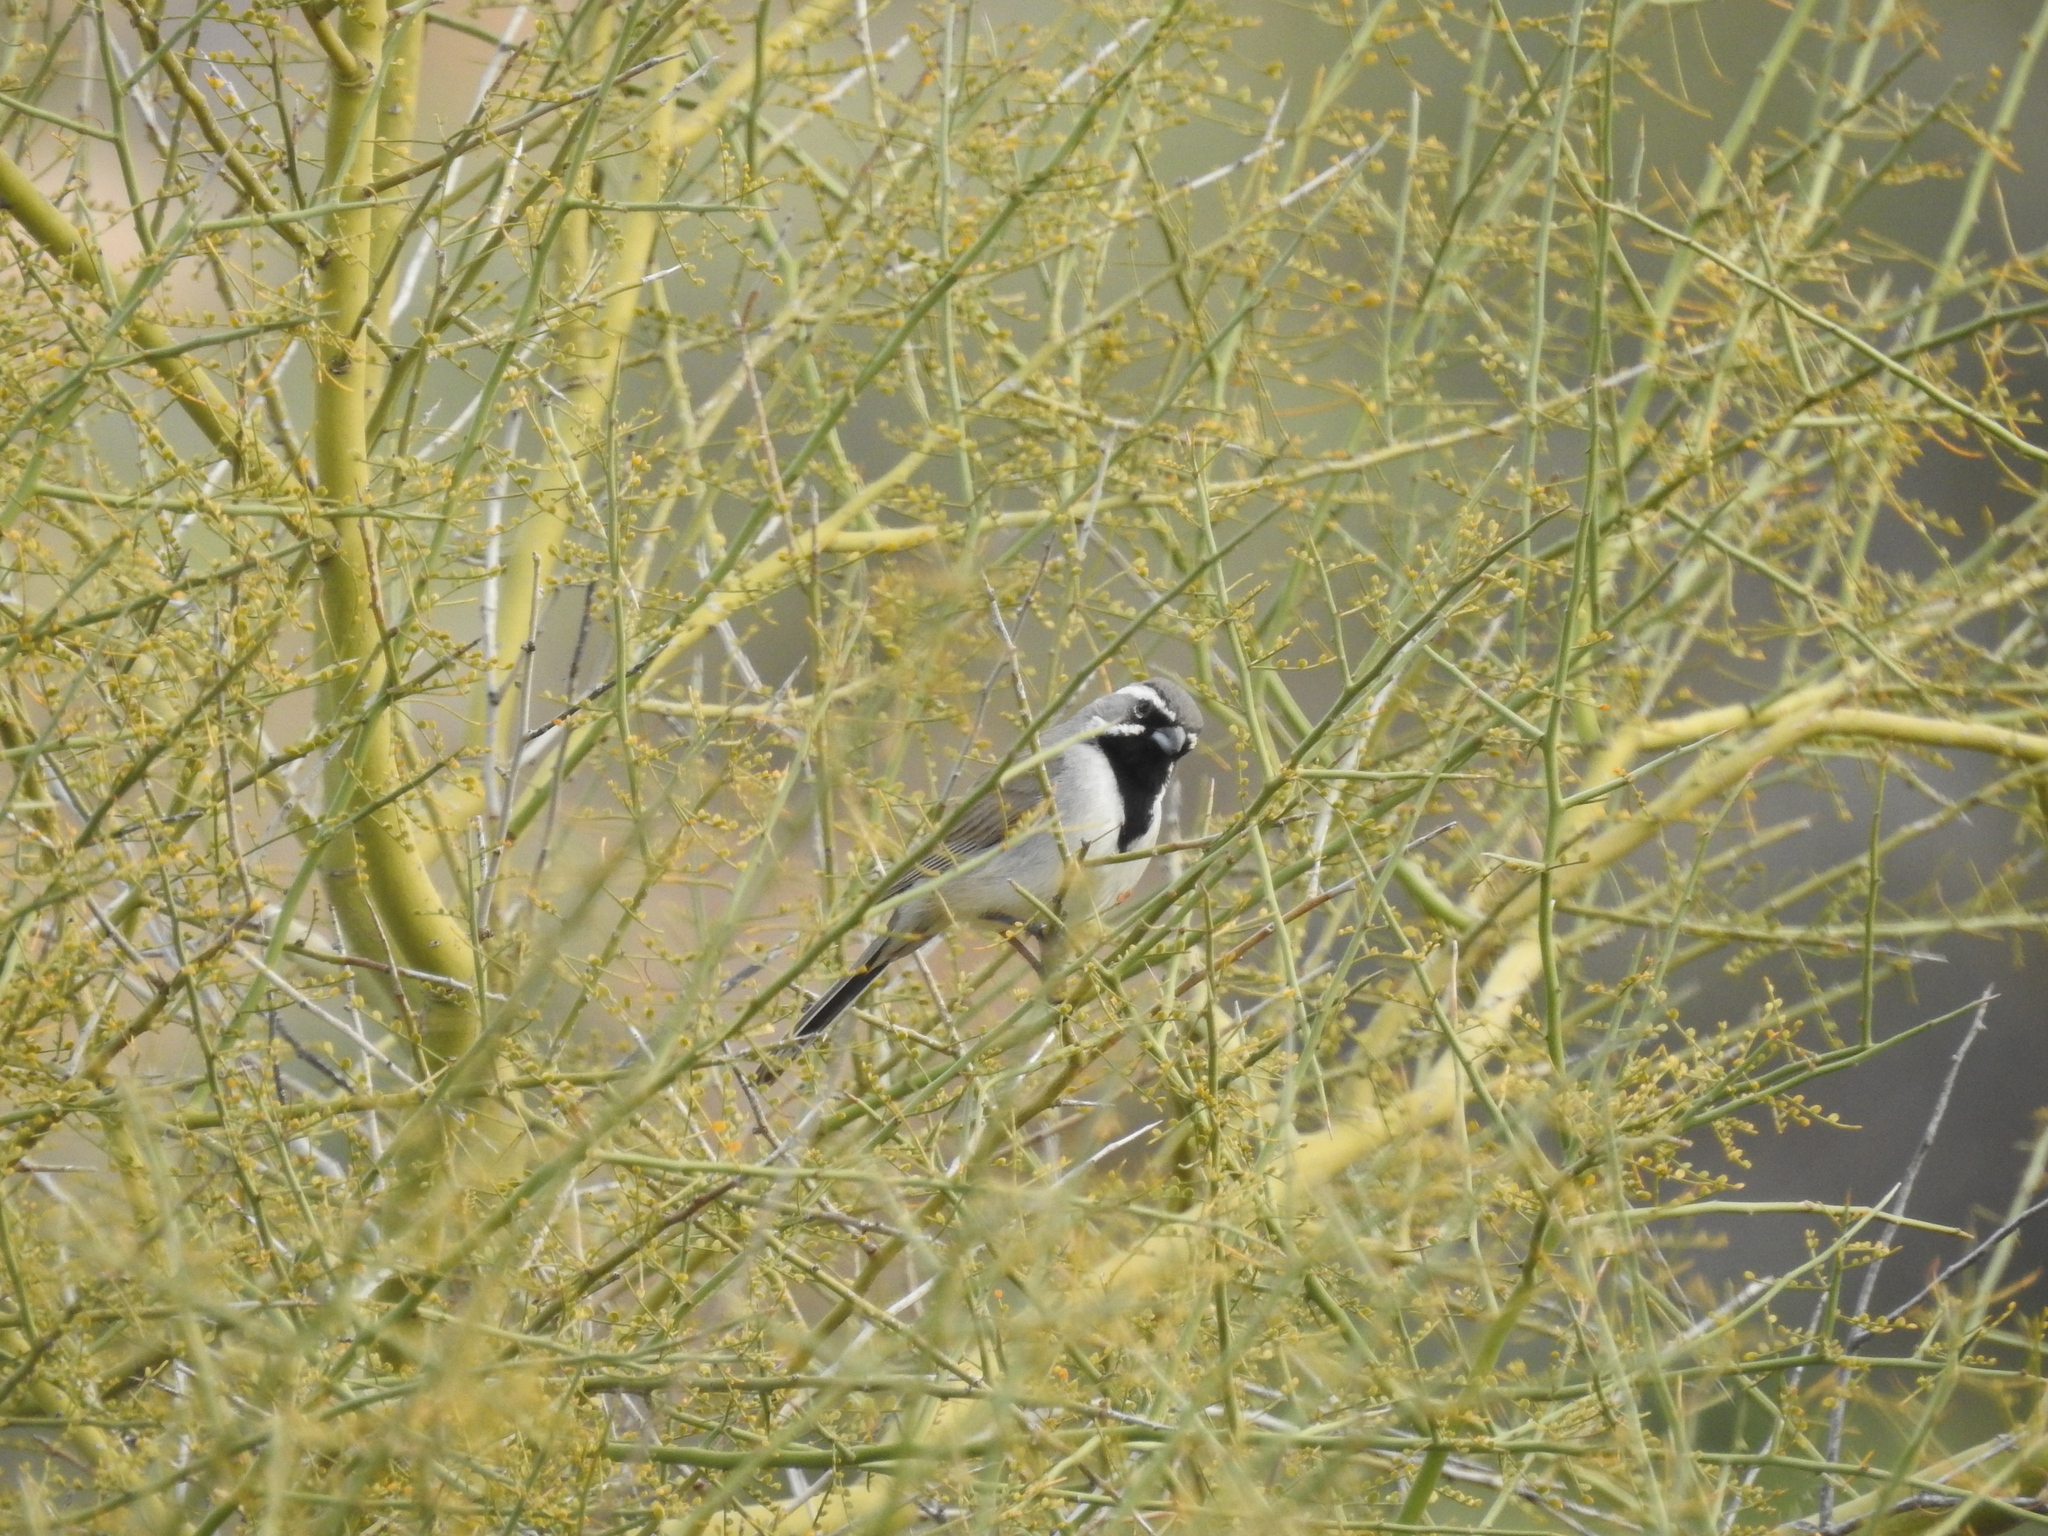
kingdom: Animalia
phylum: Chordata
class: Aves
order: Passeriformes
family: Passerellidae
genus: Amphispiza
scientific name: Amphispiza bilineata
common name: Black-throated sparrow
